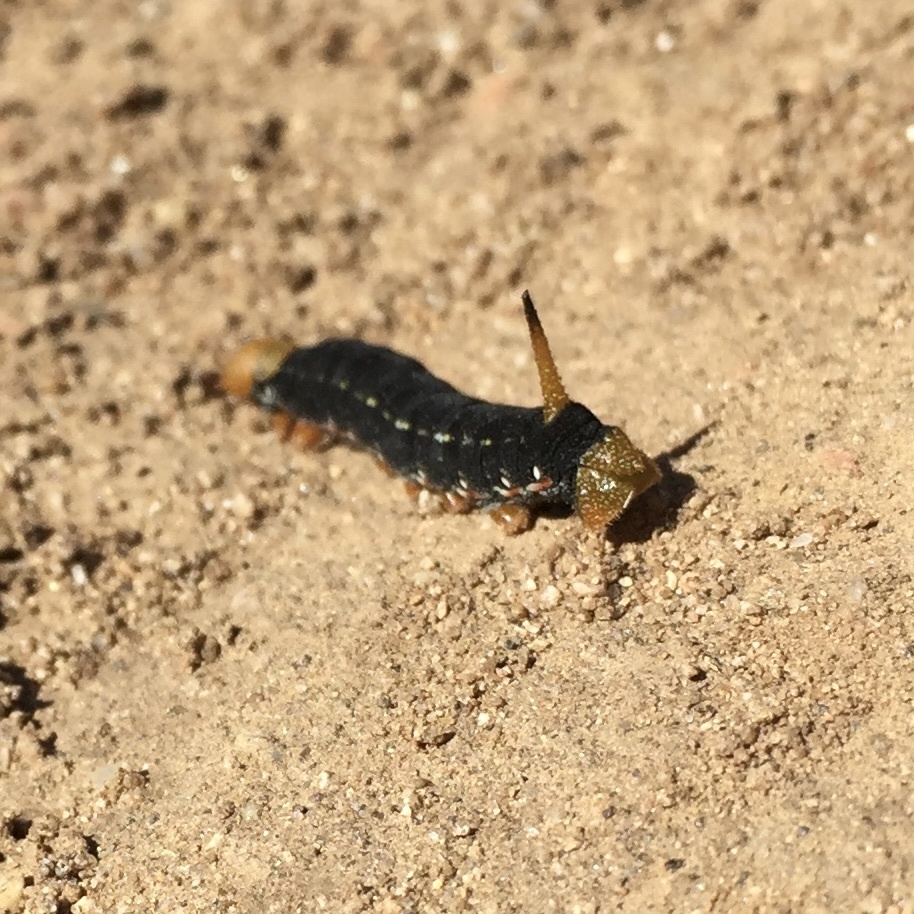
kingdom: Animalia
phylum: Arthropoda
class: Insecta
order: Lepidoptera
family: Sphingidae
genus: Hyles
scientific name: Hyles lineata
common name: White-lined sphinx
